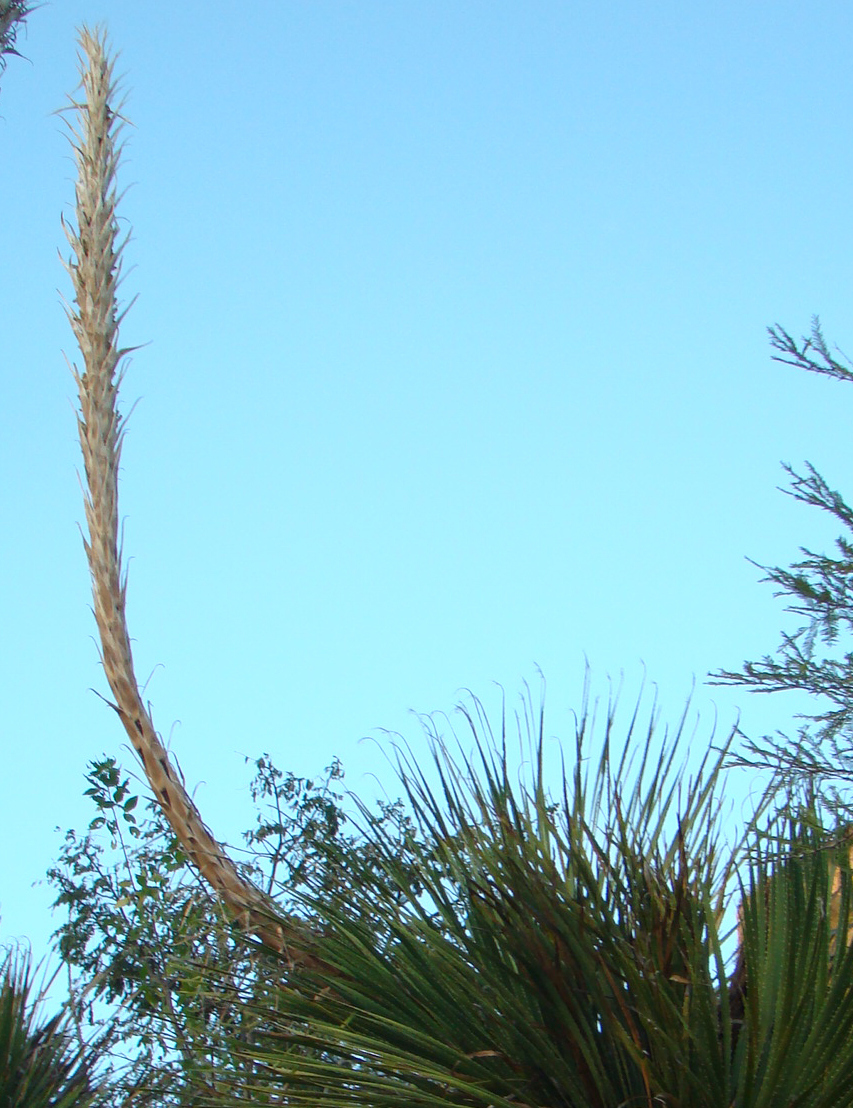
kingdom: Plantae
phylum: Tracheophyta
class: Liliopsida
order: Asparagales
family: Asparagaceae
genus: Dasylirion
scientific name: Dasylirion serratifolium
